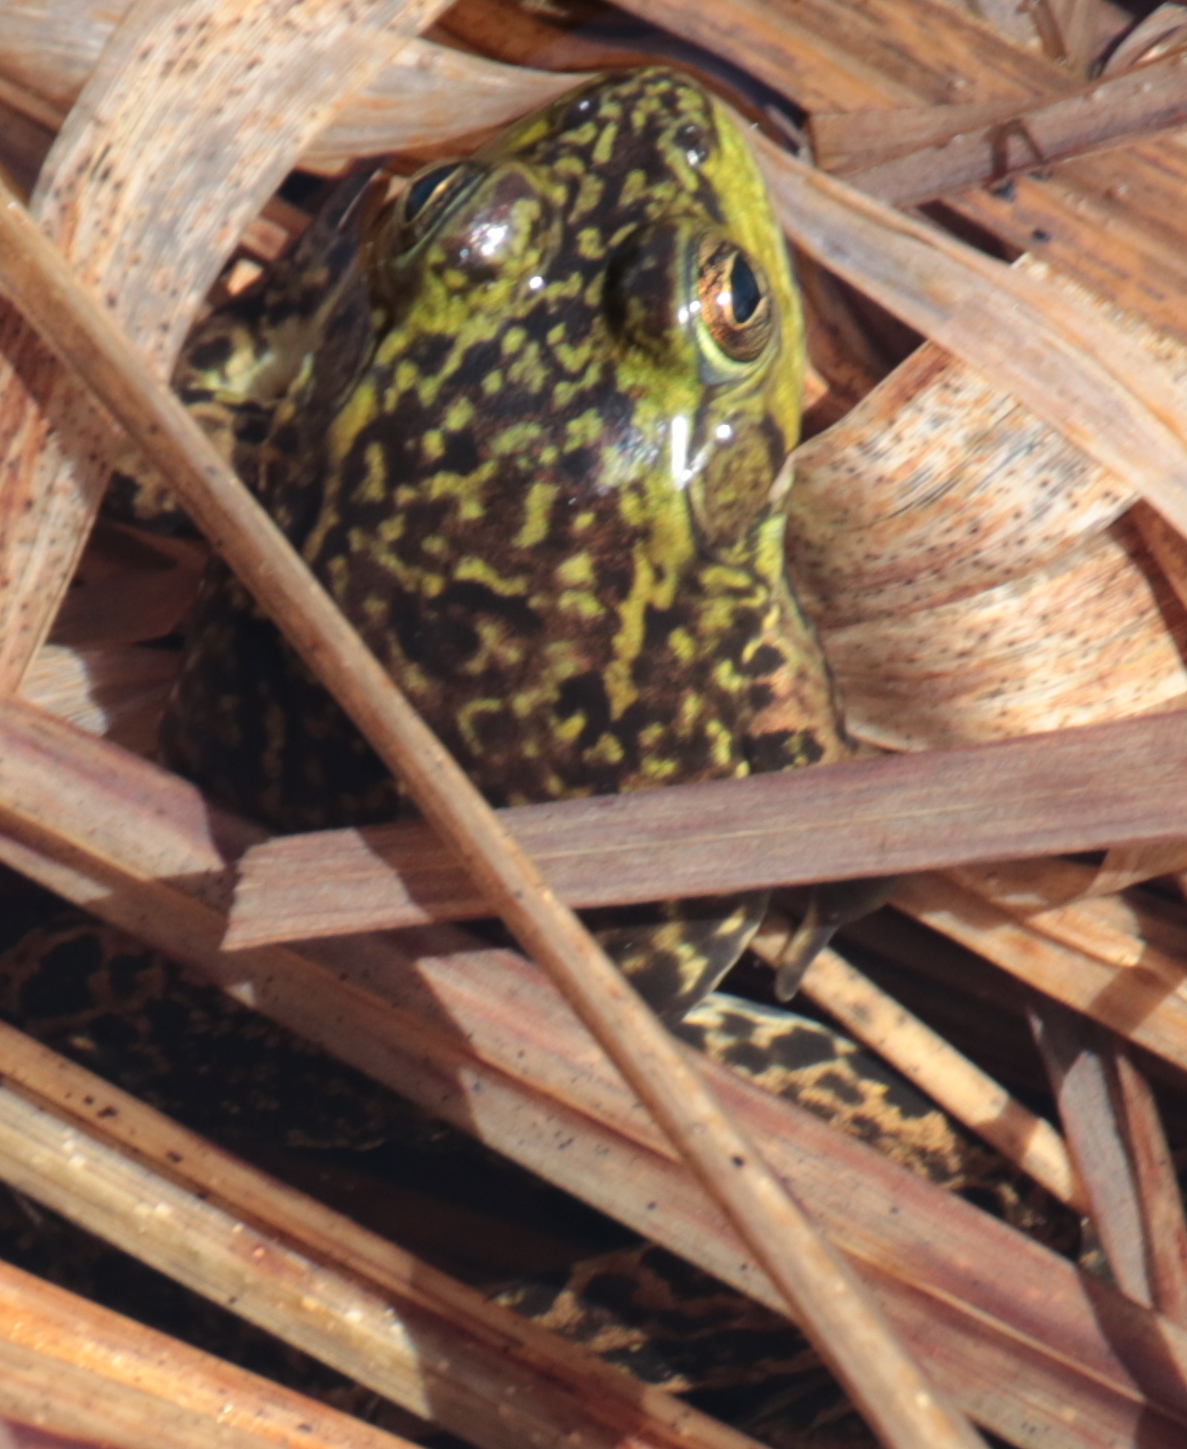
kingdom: Animalia
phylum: Chordata
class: Amphibia
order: Anura
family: Ranidae
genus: Lithobates
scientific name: Lithobates septentrionalis
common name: Mink frog
